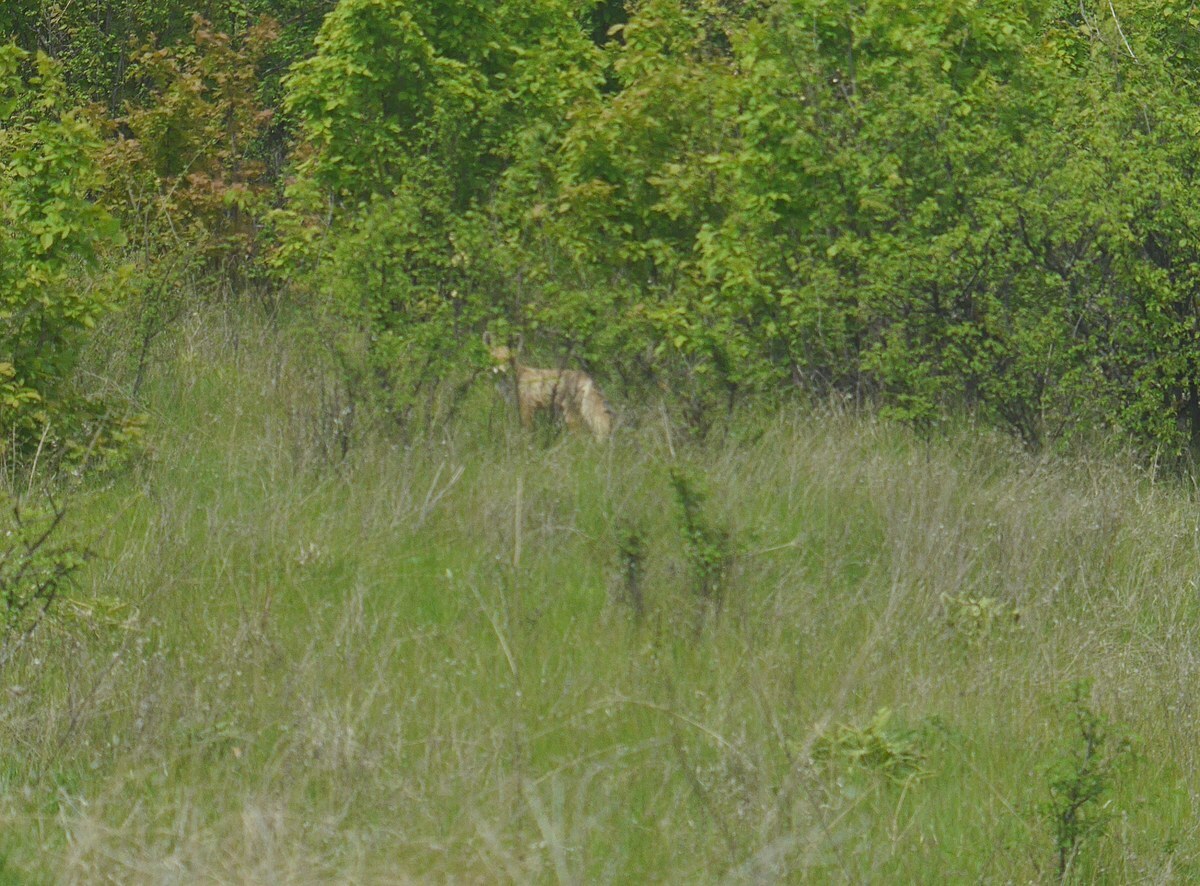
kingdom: Animalia
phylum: Chordata
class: Mammalia
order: Carnivora
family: Canidae
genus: Vulpes
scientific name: Vulpes vulpes
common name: Red fox
